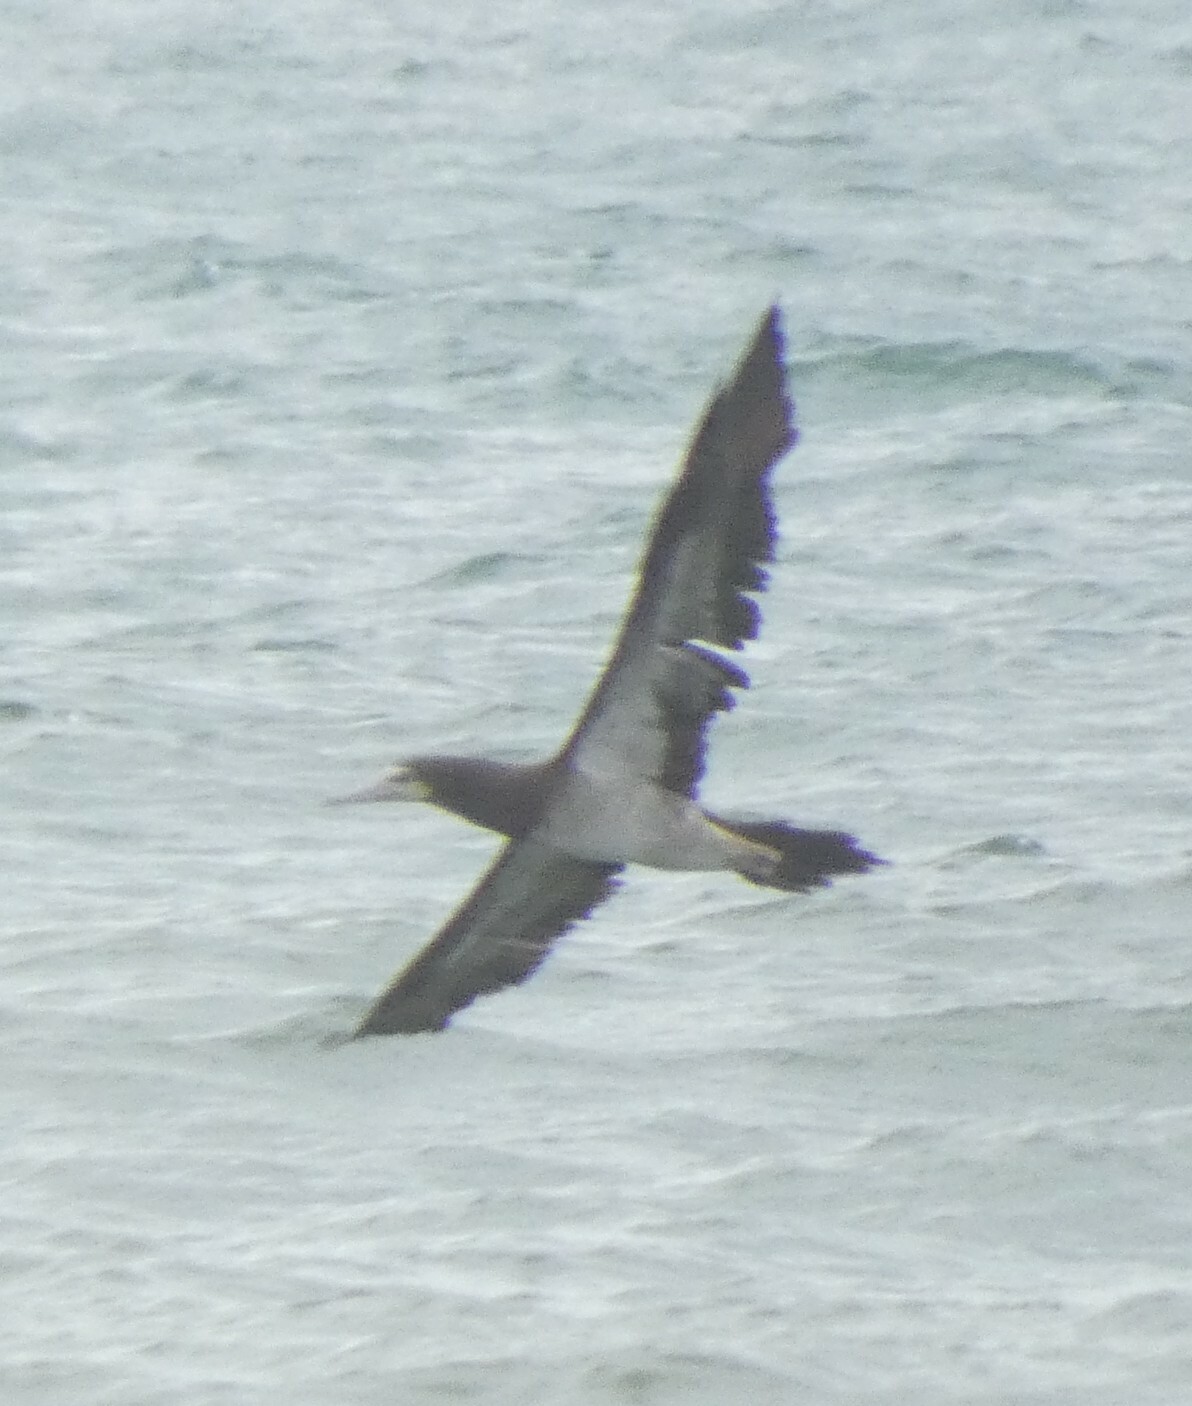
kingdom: Animalia
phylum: Chordata
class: Aves
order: Suliformes
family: Sulidae
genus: Sula
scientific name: Sula leucogaster
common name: Brown booby
